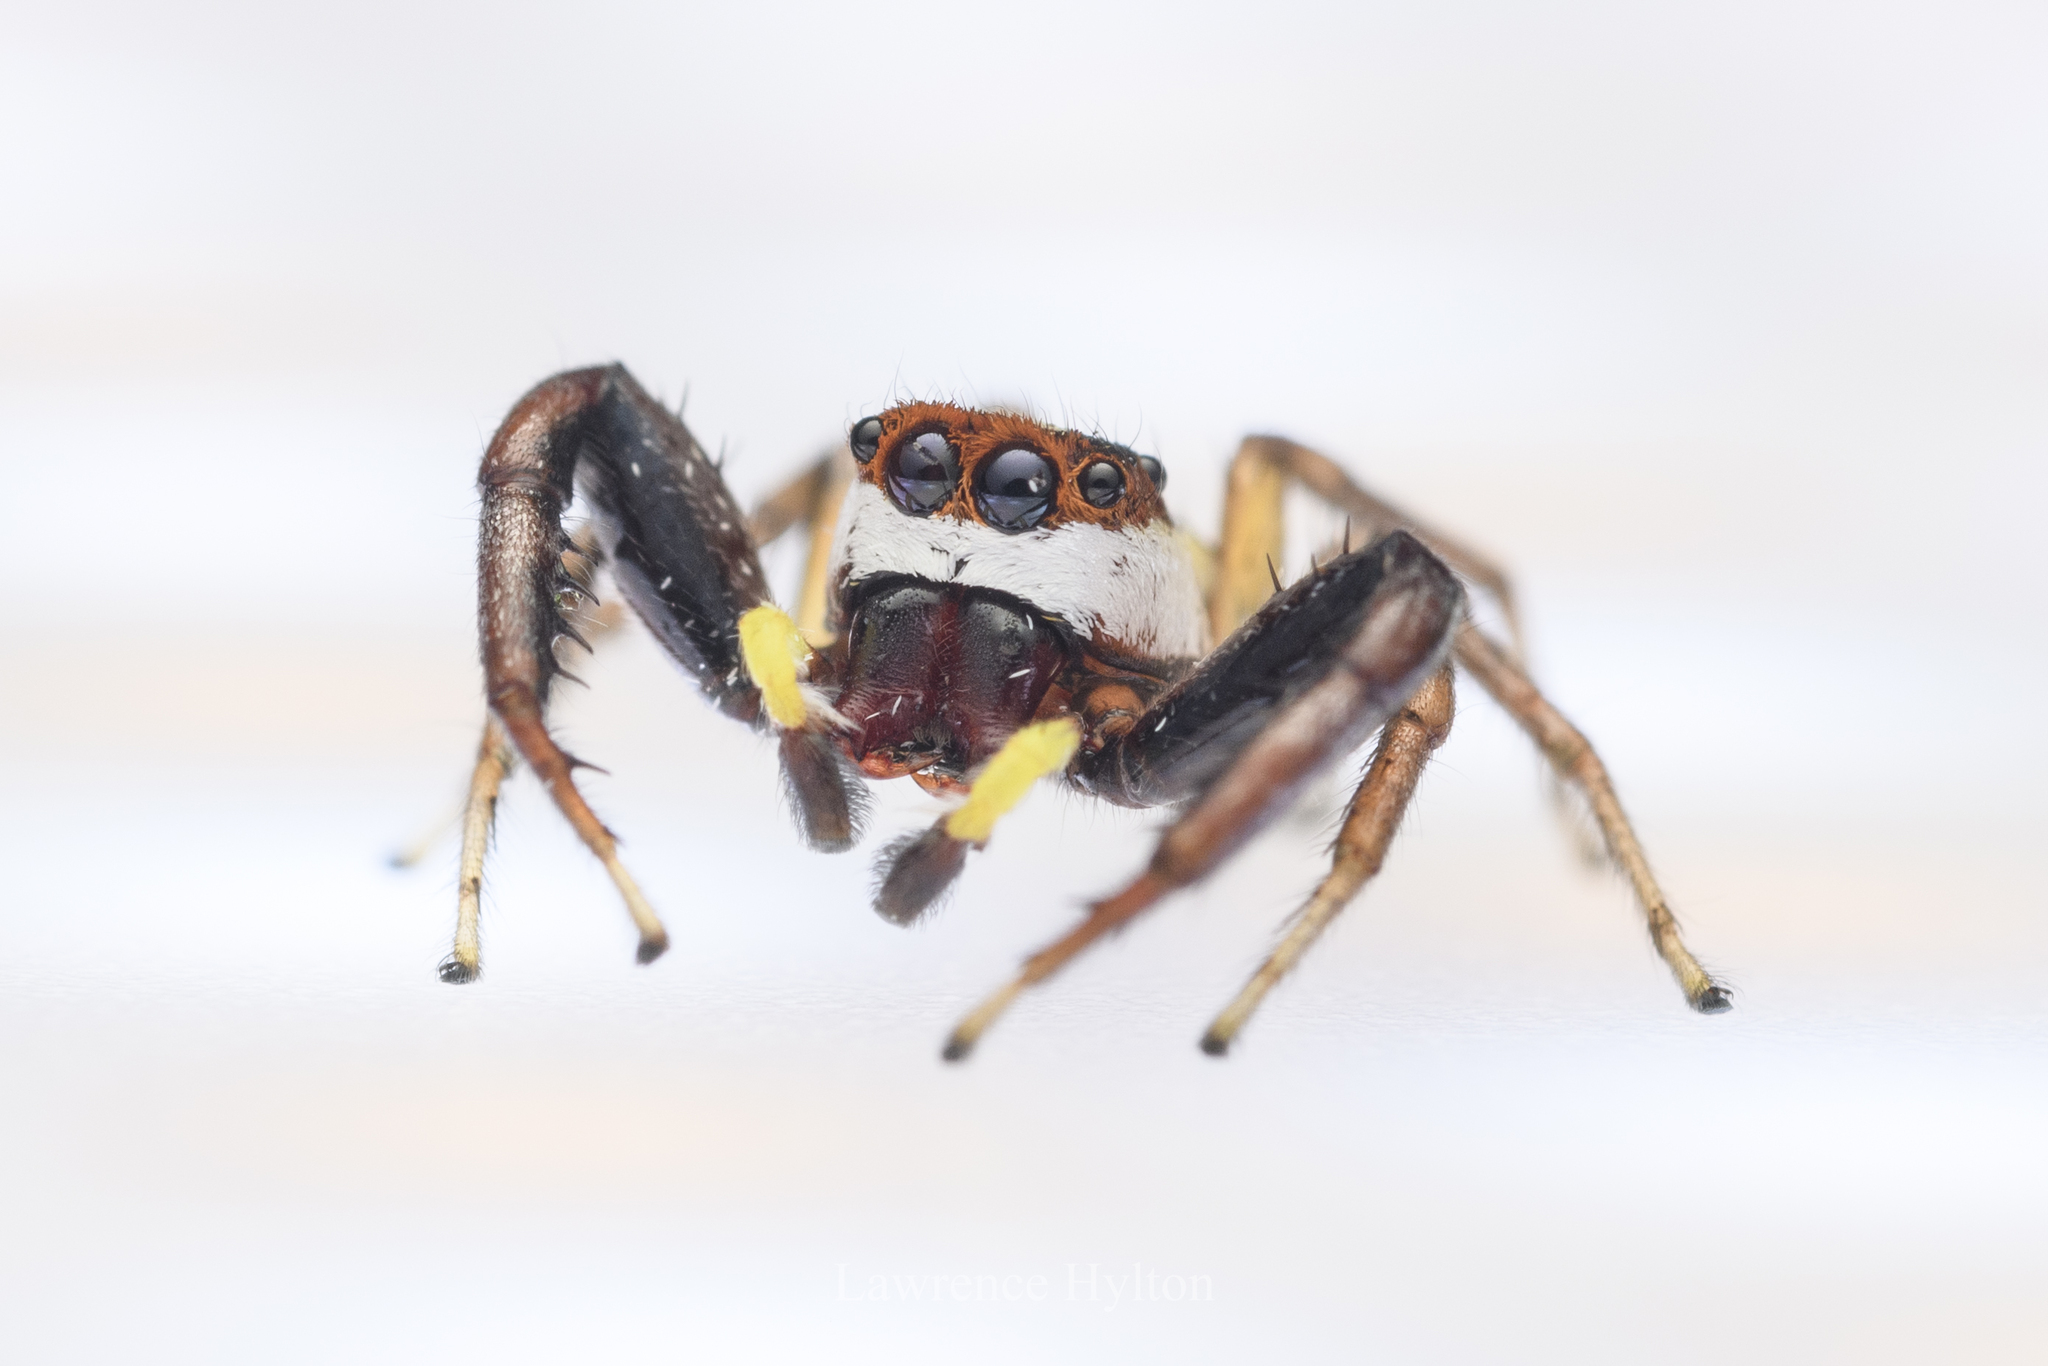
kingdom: Animalia
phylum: Arthropoda
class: Arachnida
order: Araneae
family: Salticidae
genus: Epocilla
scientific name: Epocilla blairei
